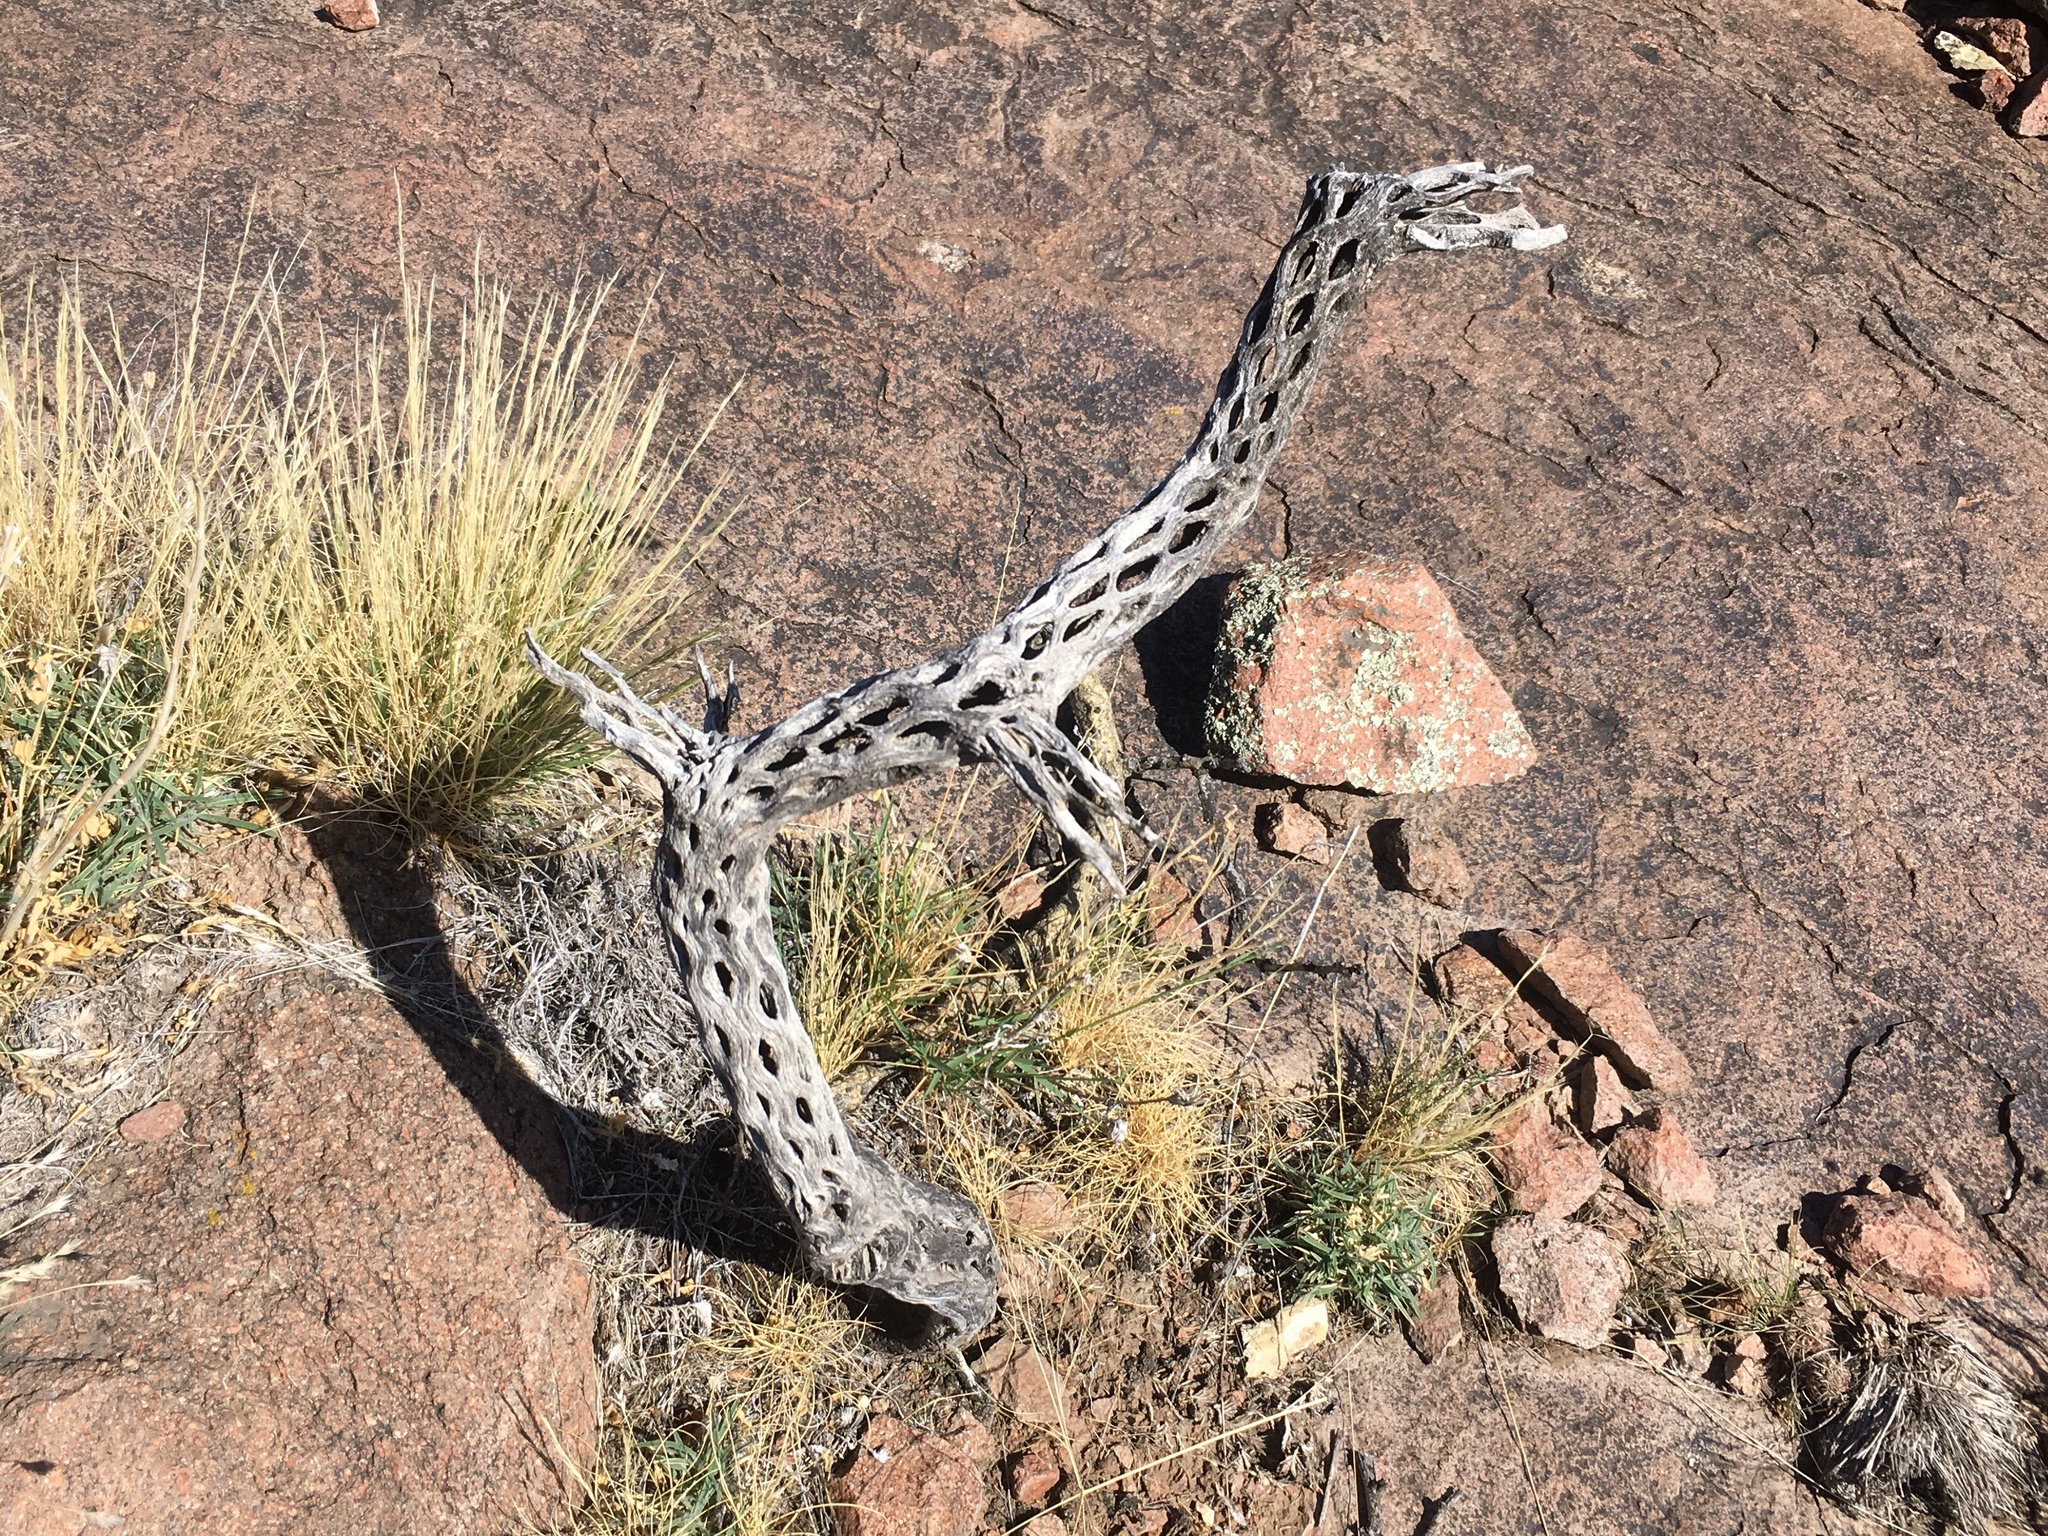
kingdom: Plantae
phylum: Tracheophyta
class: Magnoliopsida
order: Caryophyllales
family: Cactaceae
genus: Cylindropuntia
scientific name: Cylindropuntia tunicata
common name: Sheathed cholla
